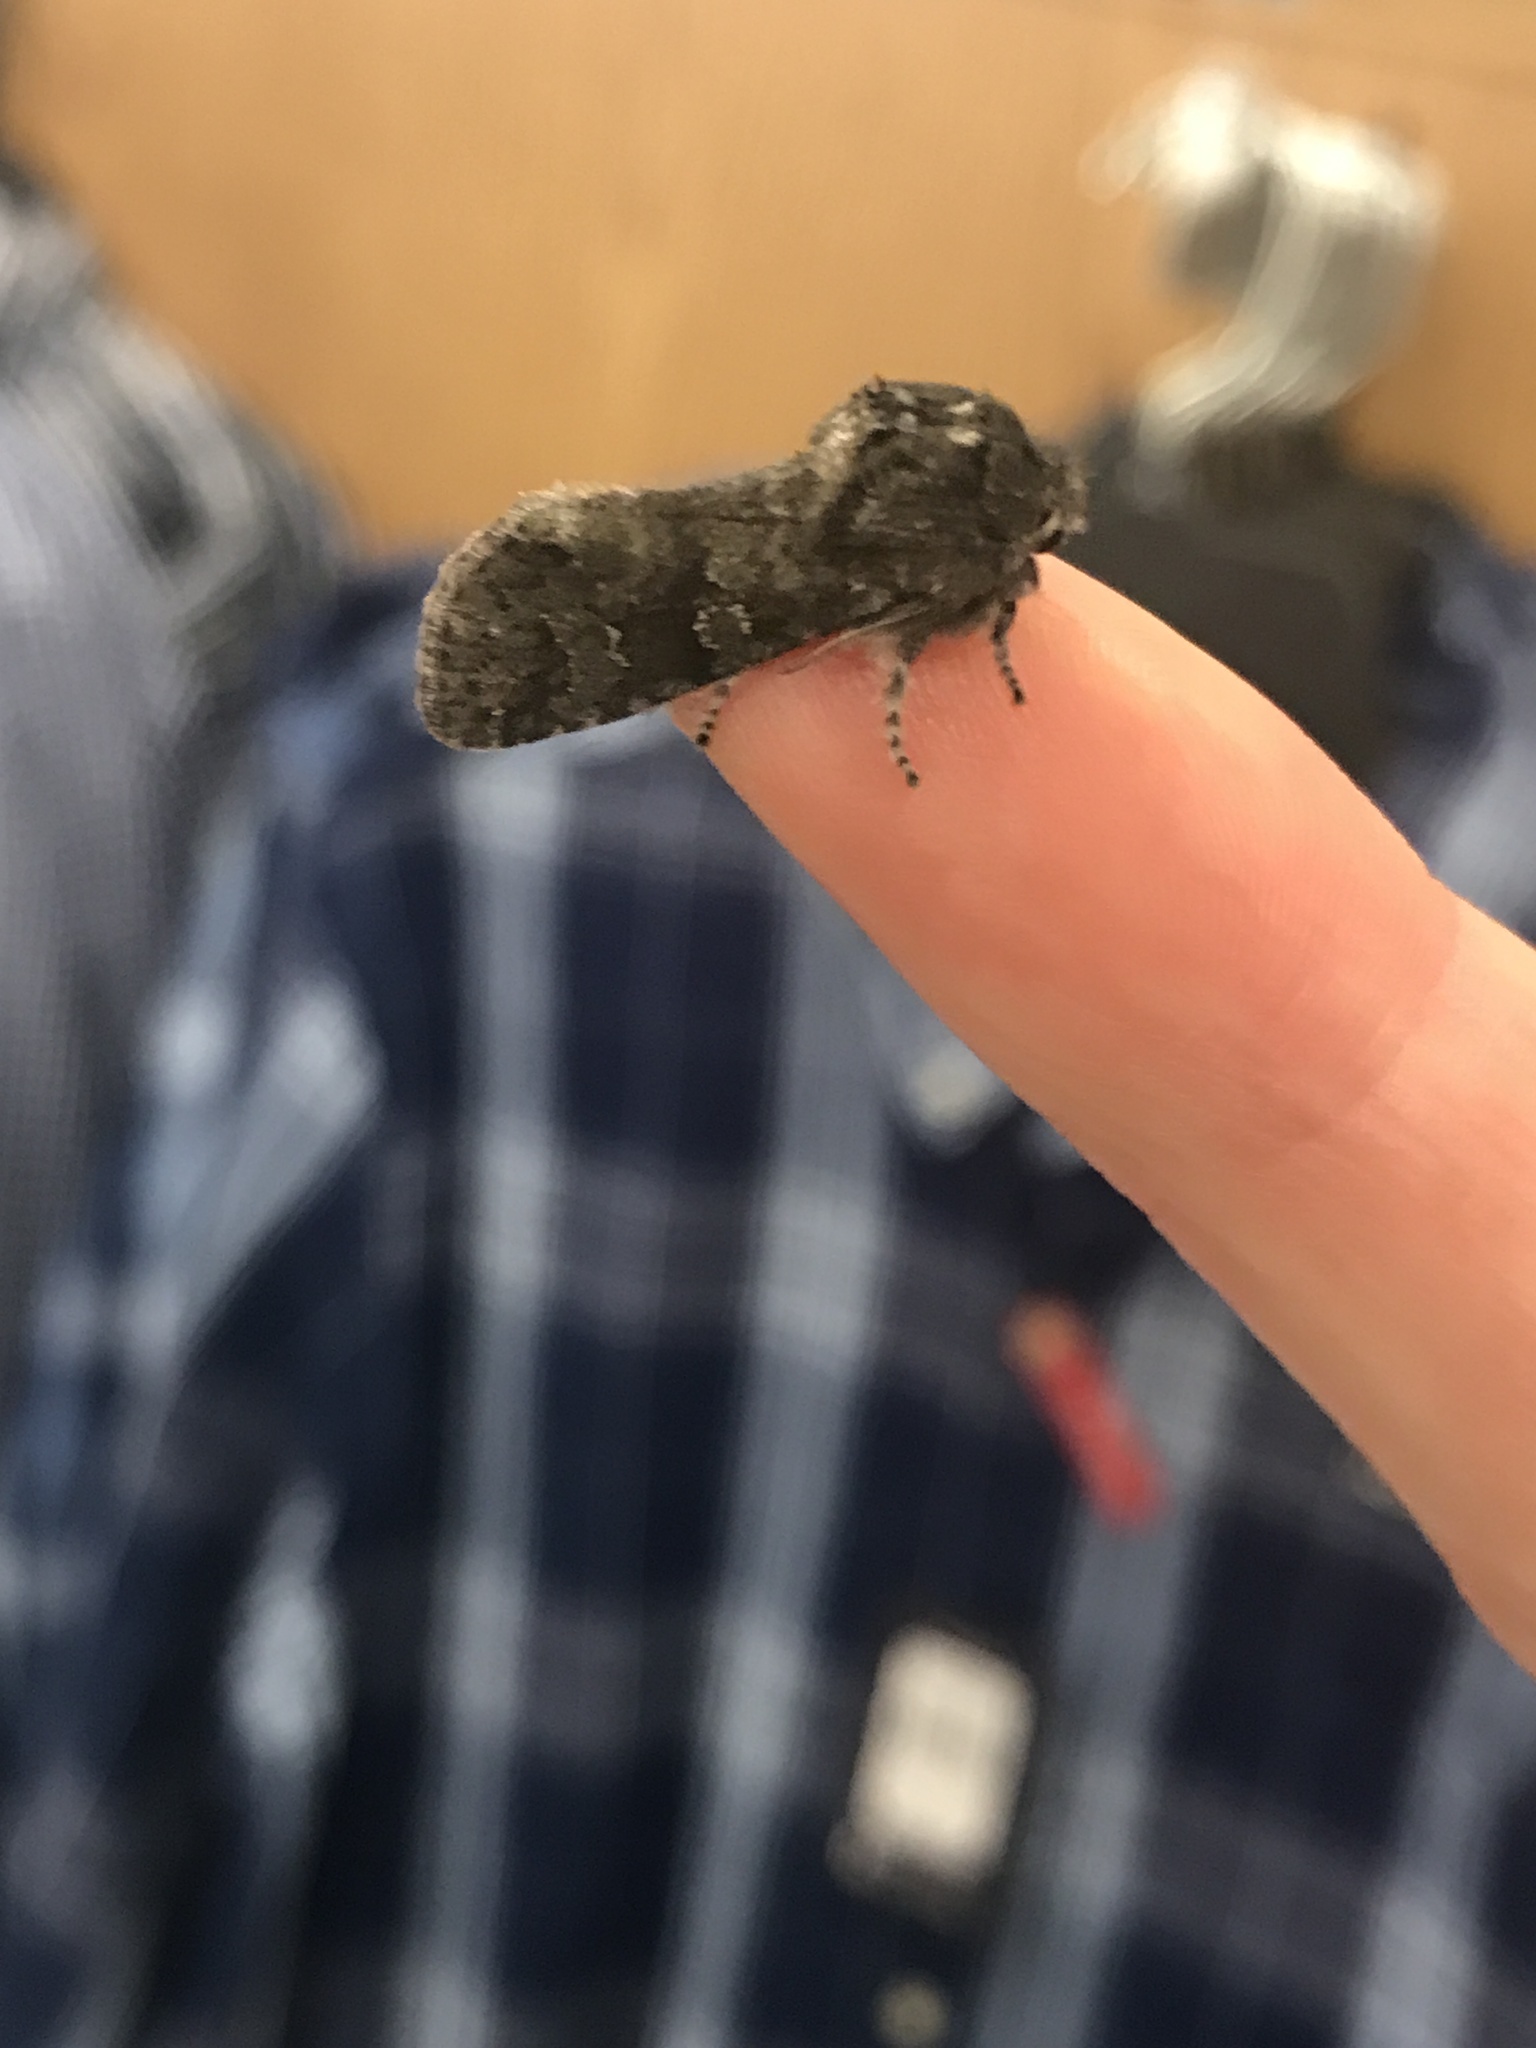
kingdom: Animalia
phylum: Arthropoda
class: Insecta
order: Lepidoptera
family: Noctuidae
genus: Psaphida
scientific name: Psaphida rolandi
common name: Roland's sallow
